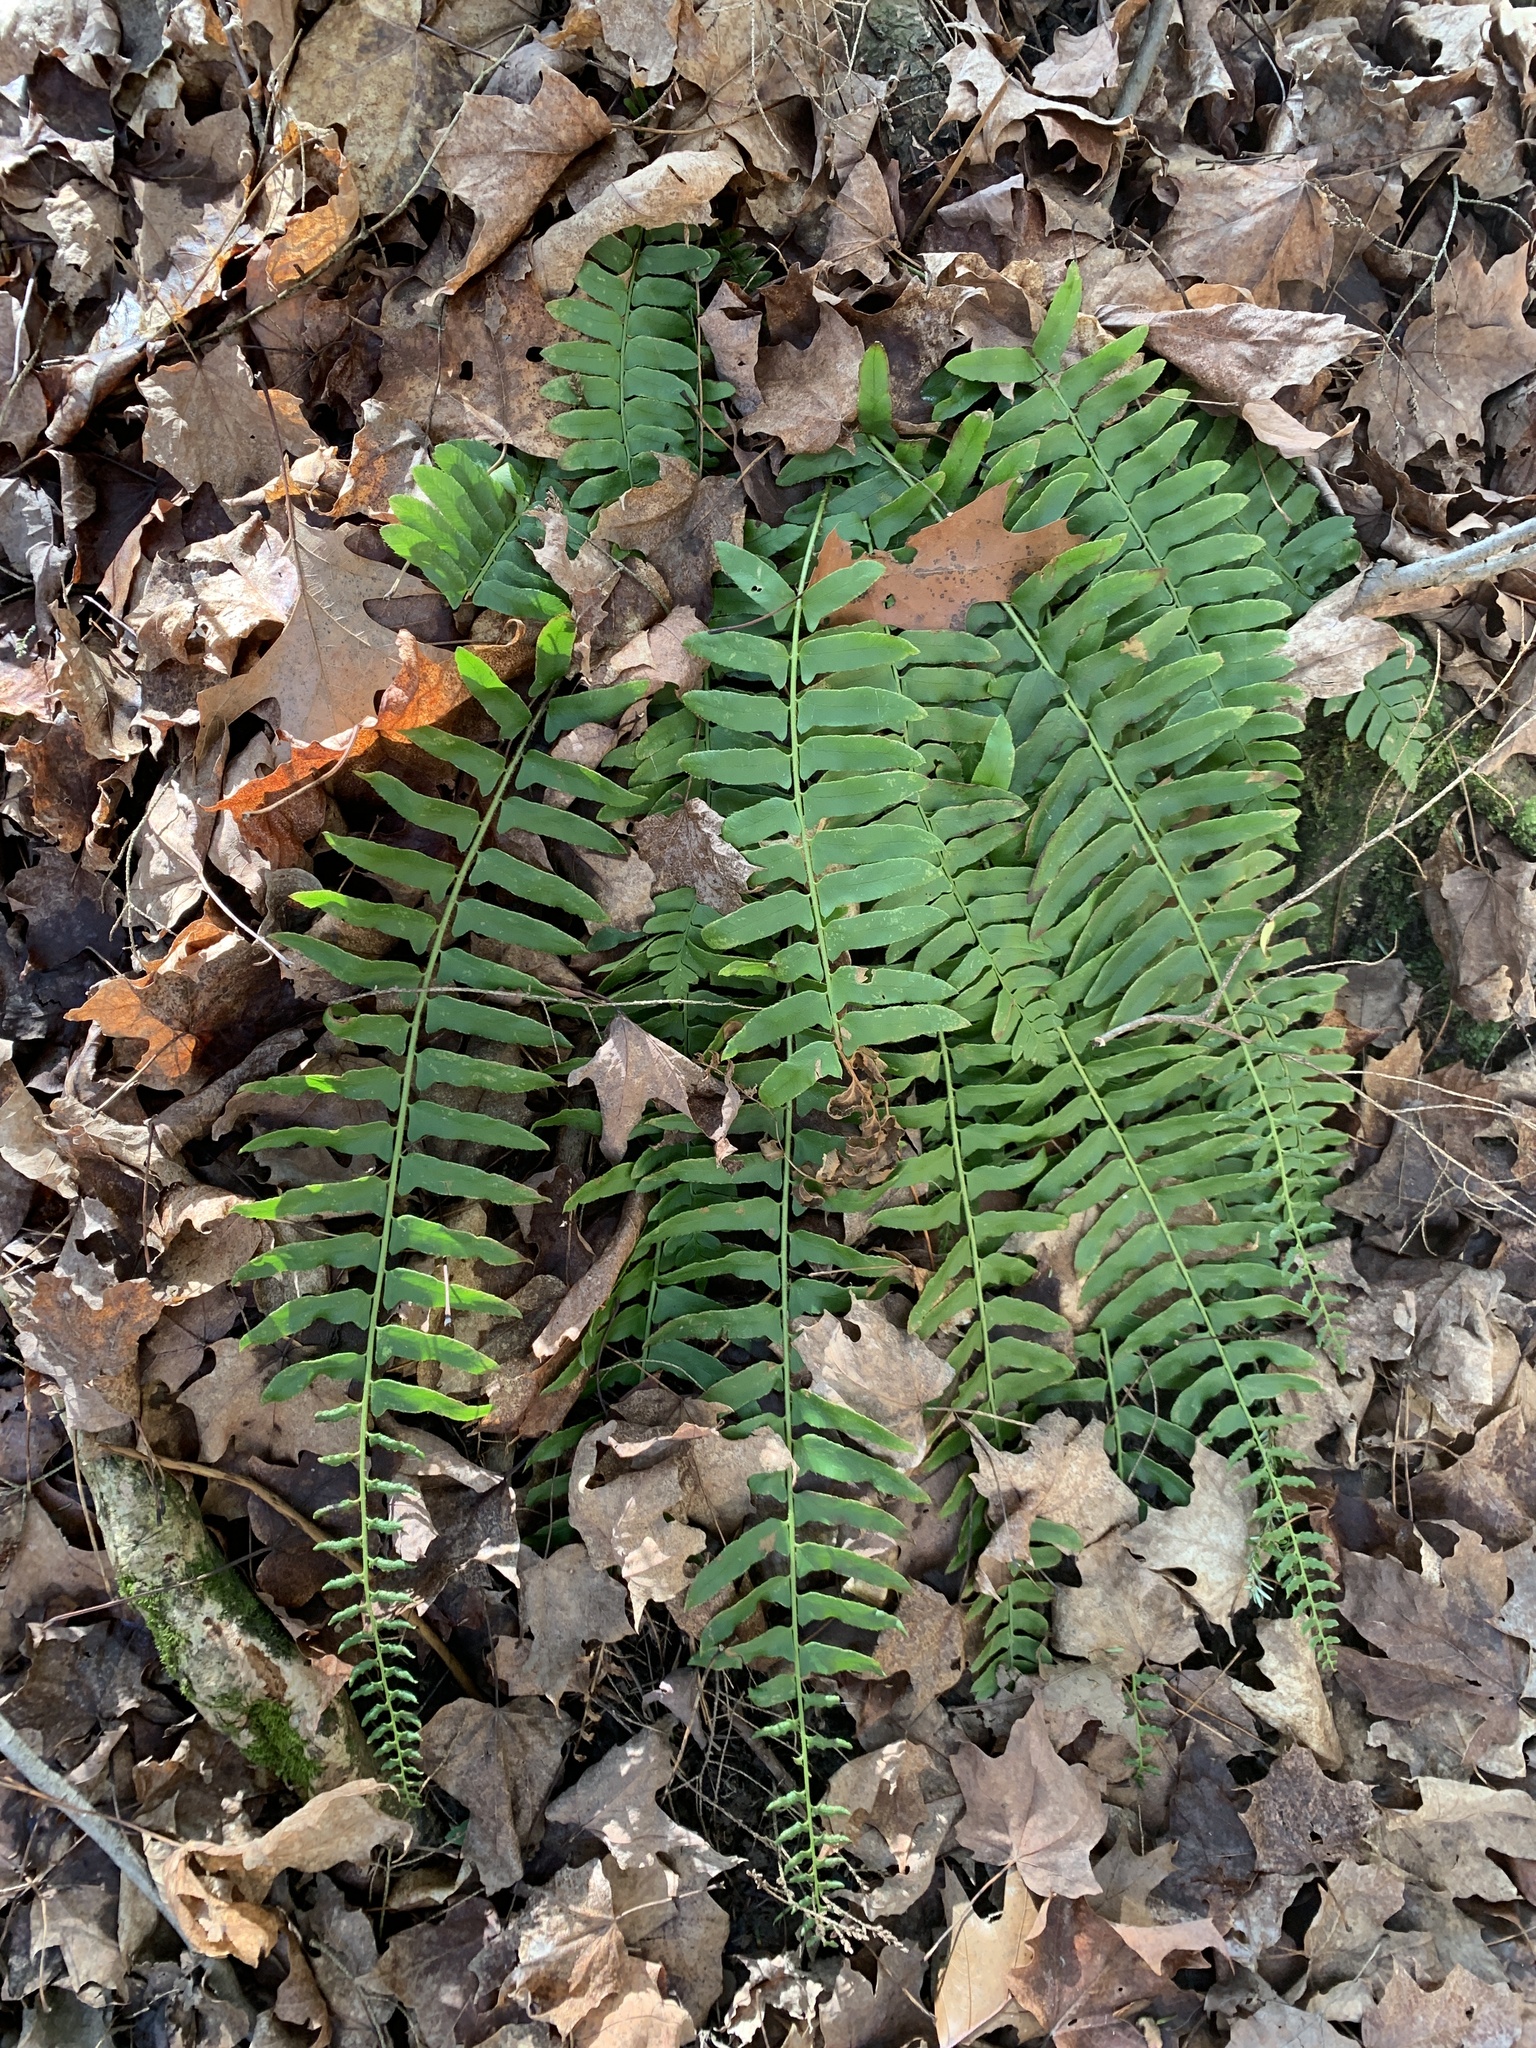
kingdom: Plantae
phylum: Tracheophyta
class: Polypodiopsida
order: Polypodiales
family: Dryopteridaceae
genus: Polystichum
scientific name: Polystichum acrostichoides
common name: Christmas fern
